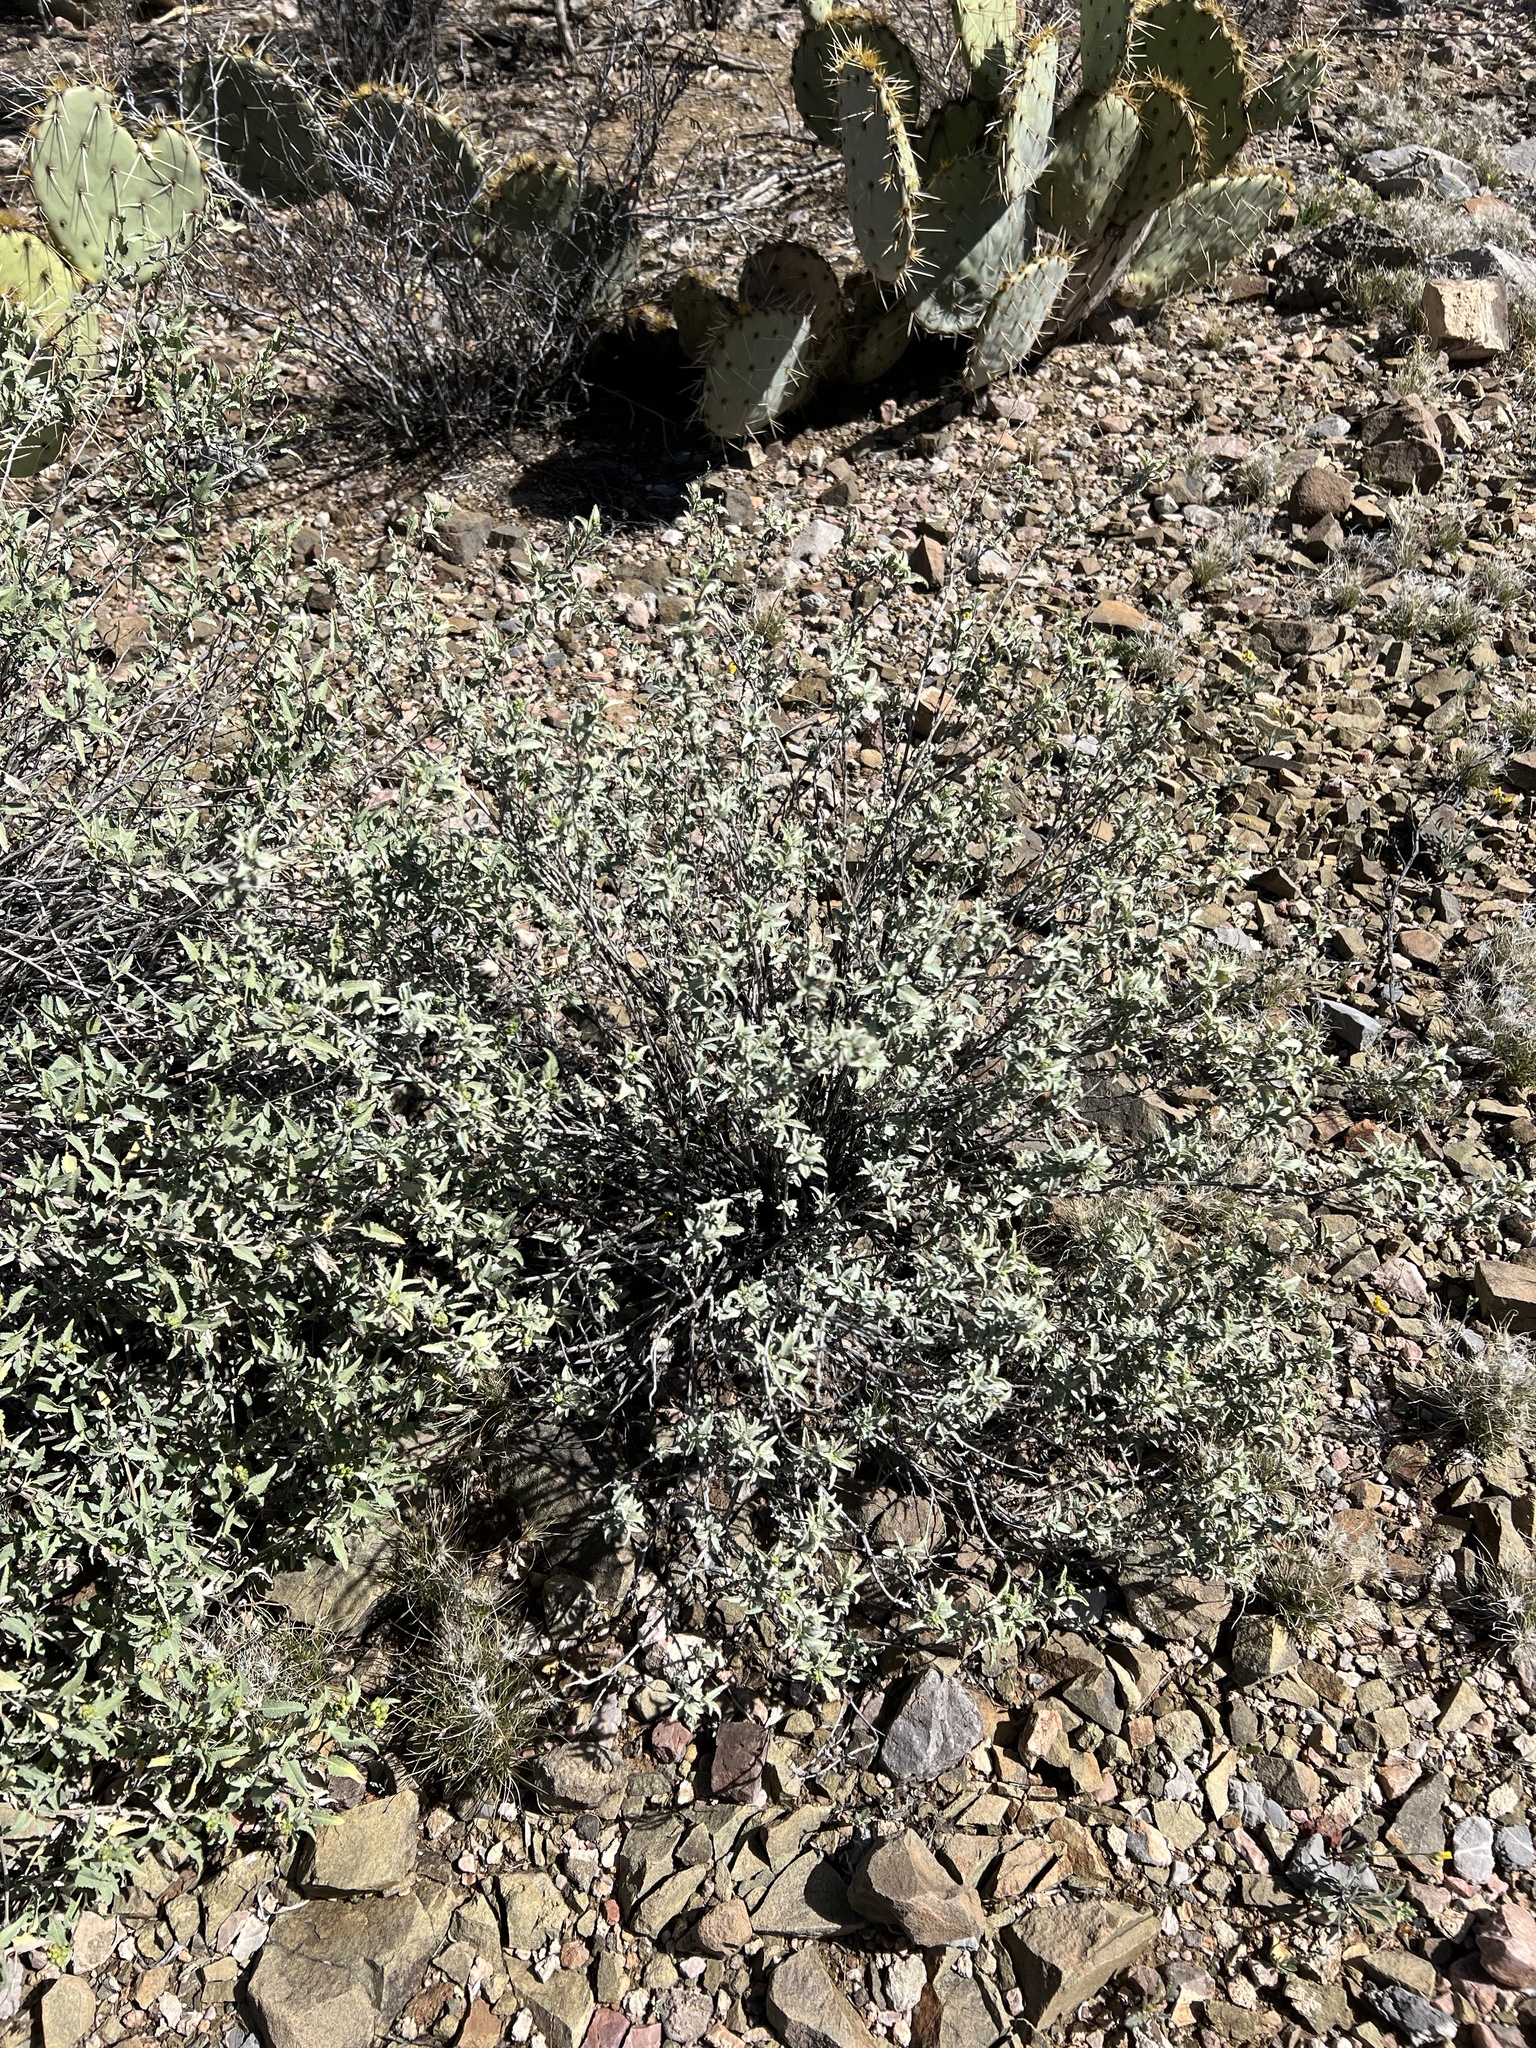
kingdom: Plantae
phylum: Tracheophyta
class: Magnoliopsida
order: Asterales
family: Asteraceae
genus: Ambrosia
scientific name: Ambrosia deltoidea
